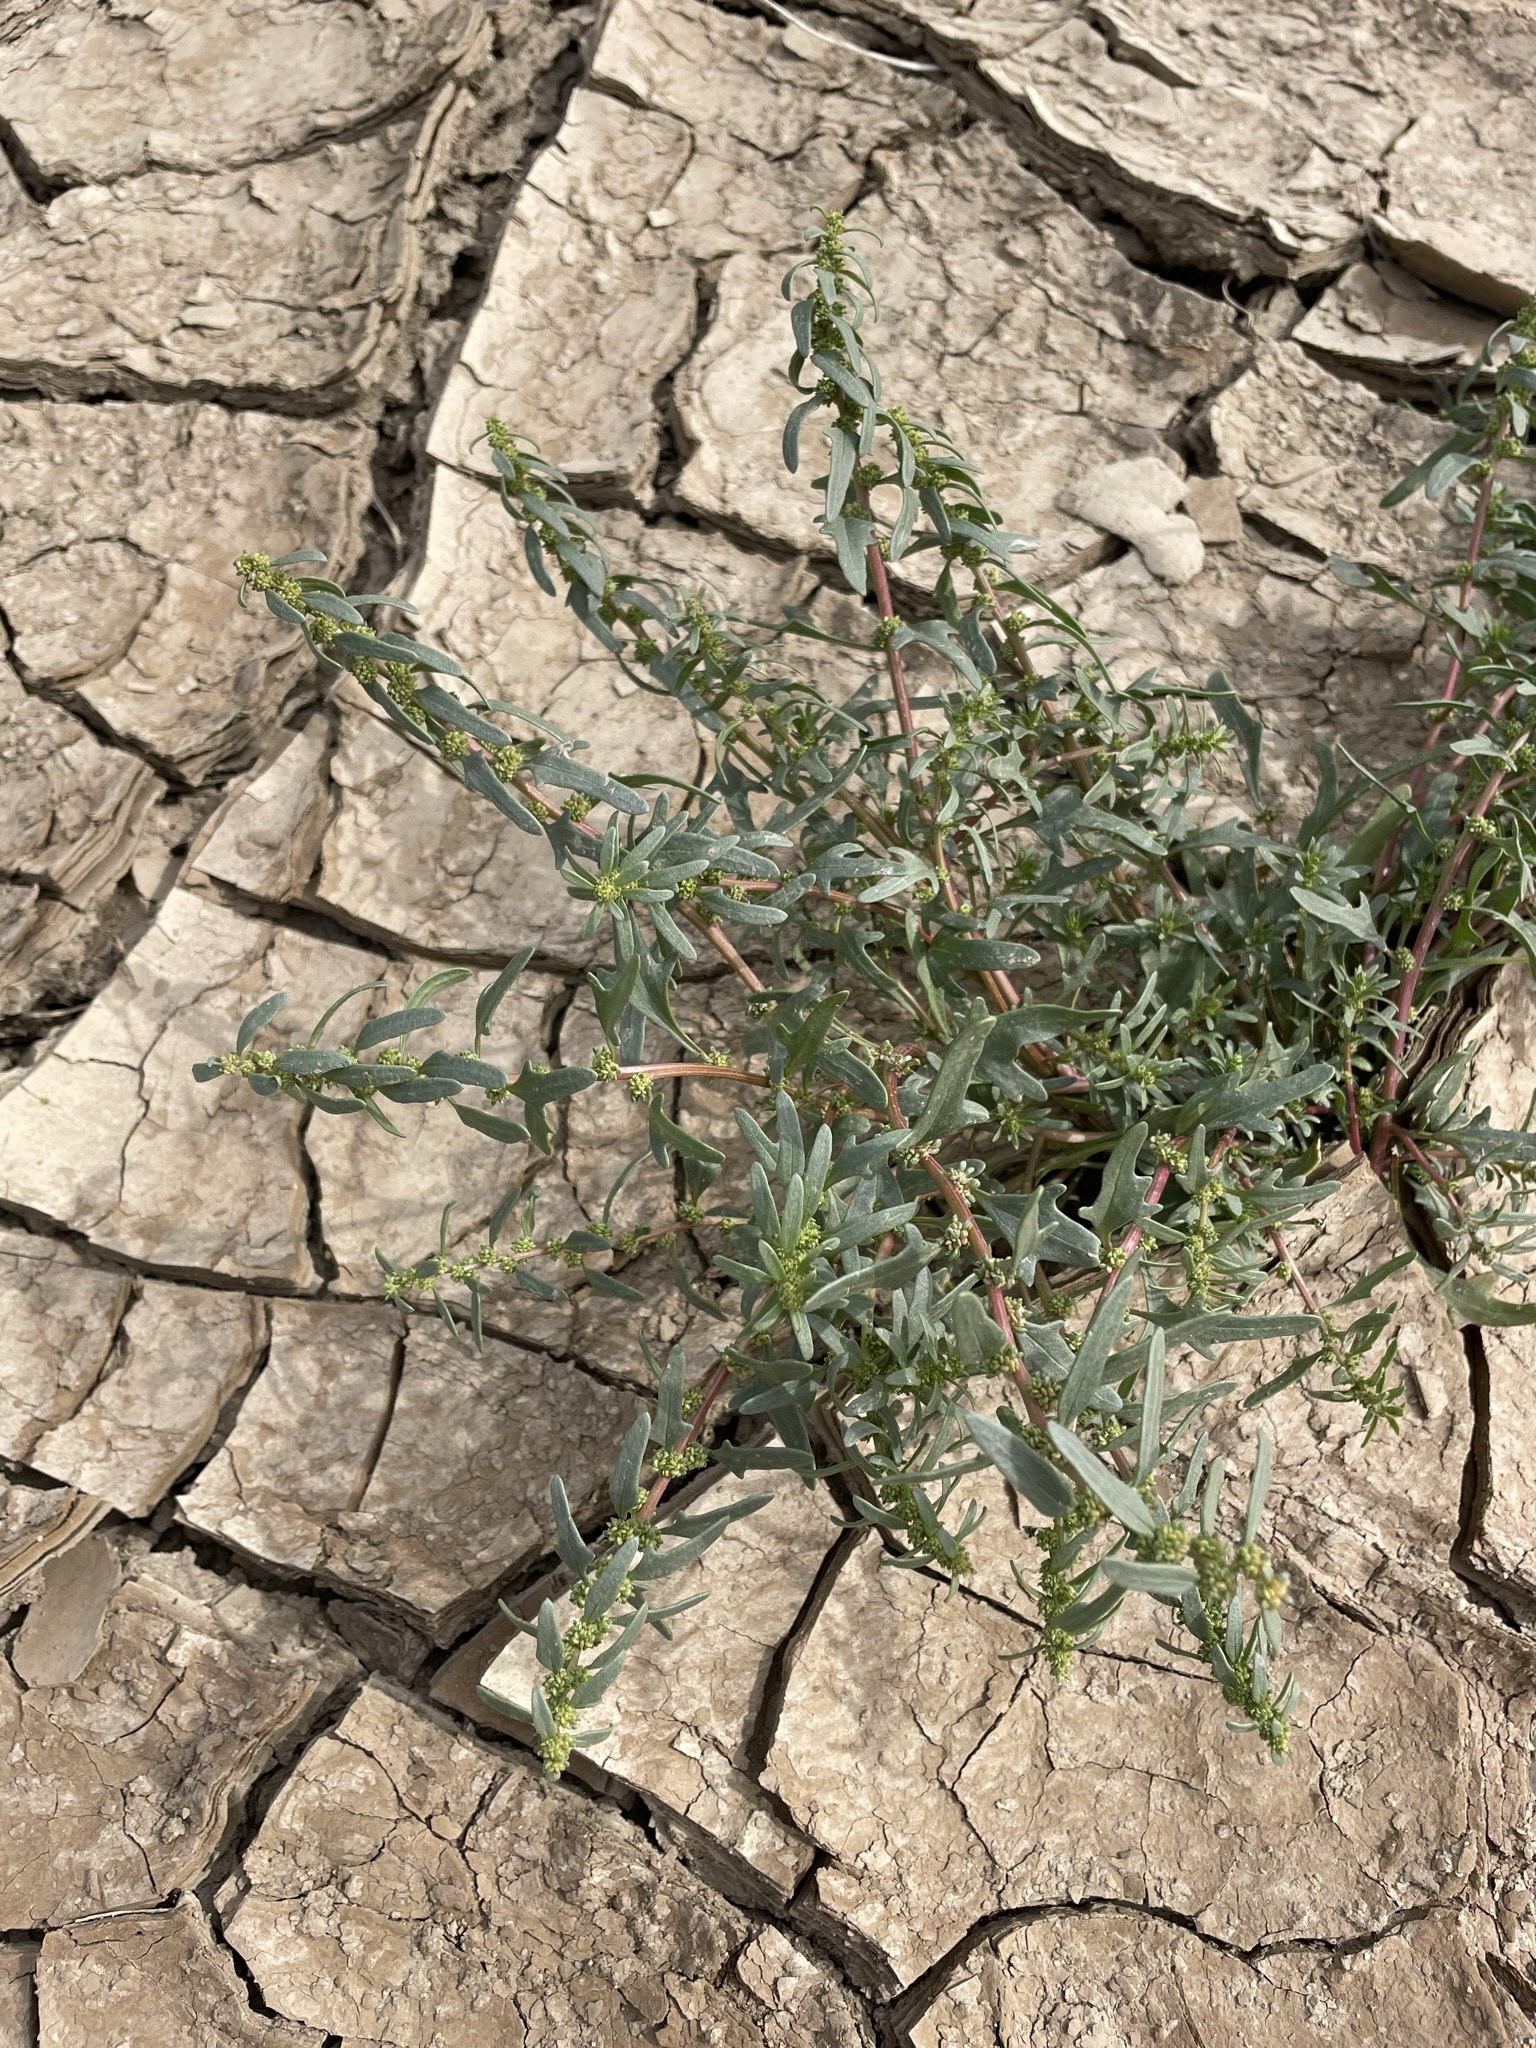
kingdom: Plantae
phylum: Tracheophyta
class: Magnoliopsida
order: Caryophyllales
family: Amaranthaceae
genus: Blitum
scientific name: Blitum nuttallianum
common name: Poverty-weed
